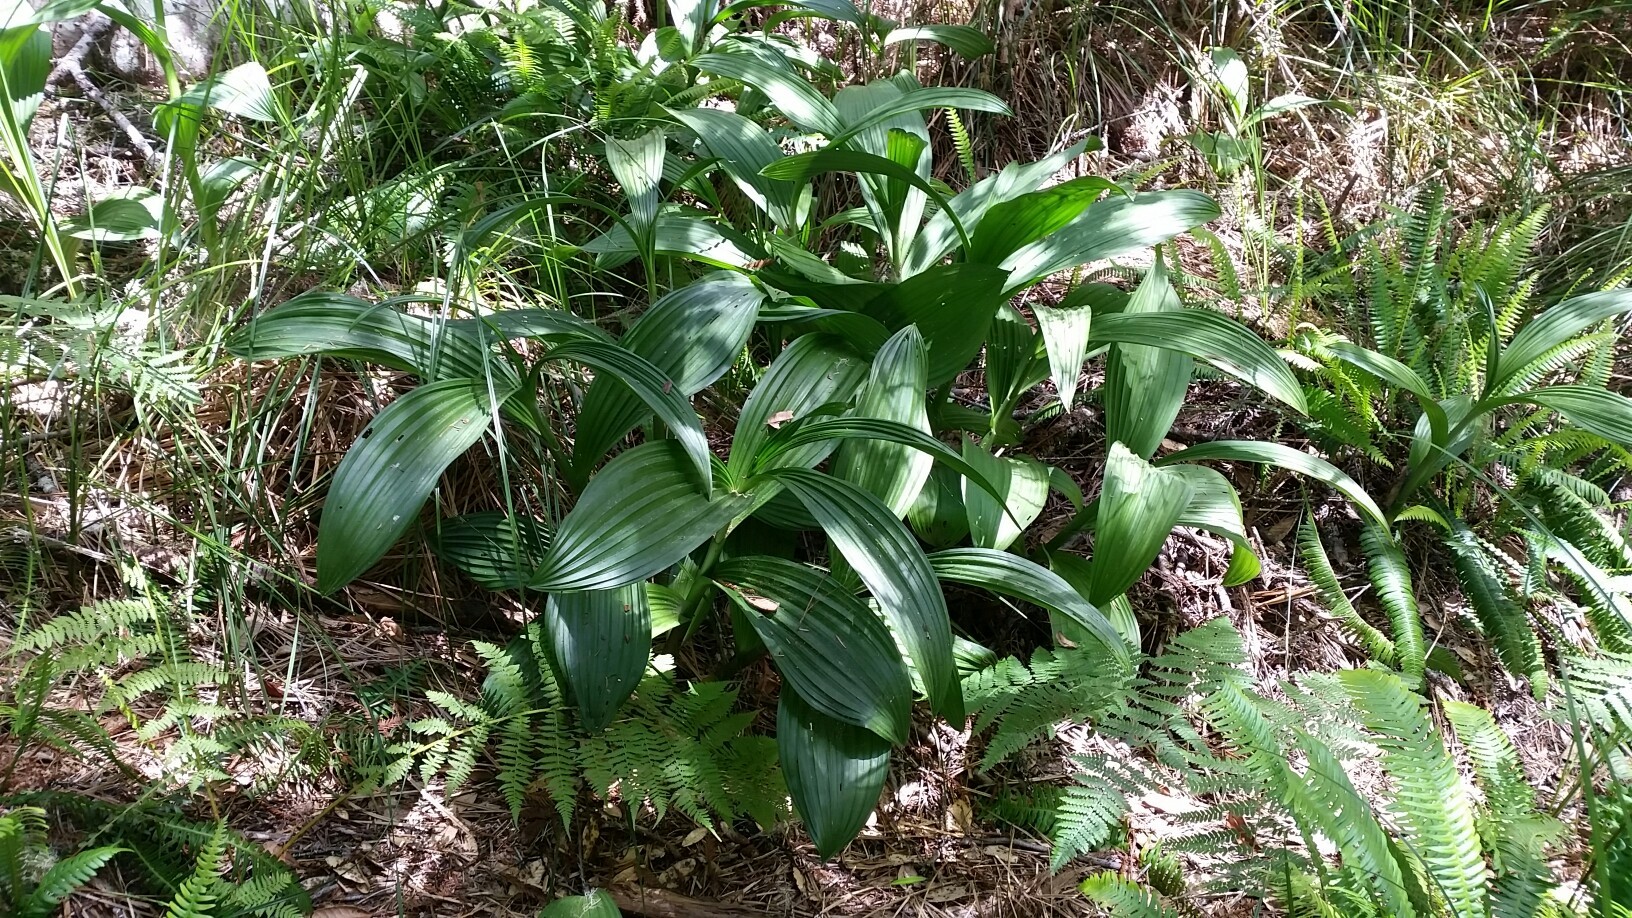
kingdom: Plantae
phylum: Tracheophyta
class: Liliopsida
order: Liliales
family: Melanthiaceae
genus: Veratrum
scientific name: Veratrum fimbriatum
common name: Fringe false hellobore
